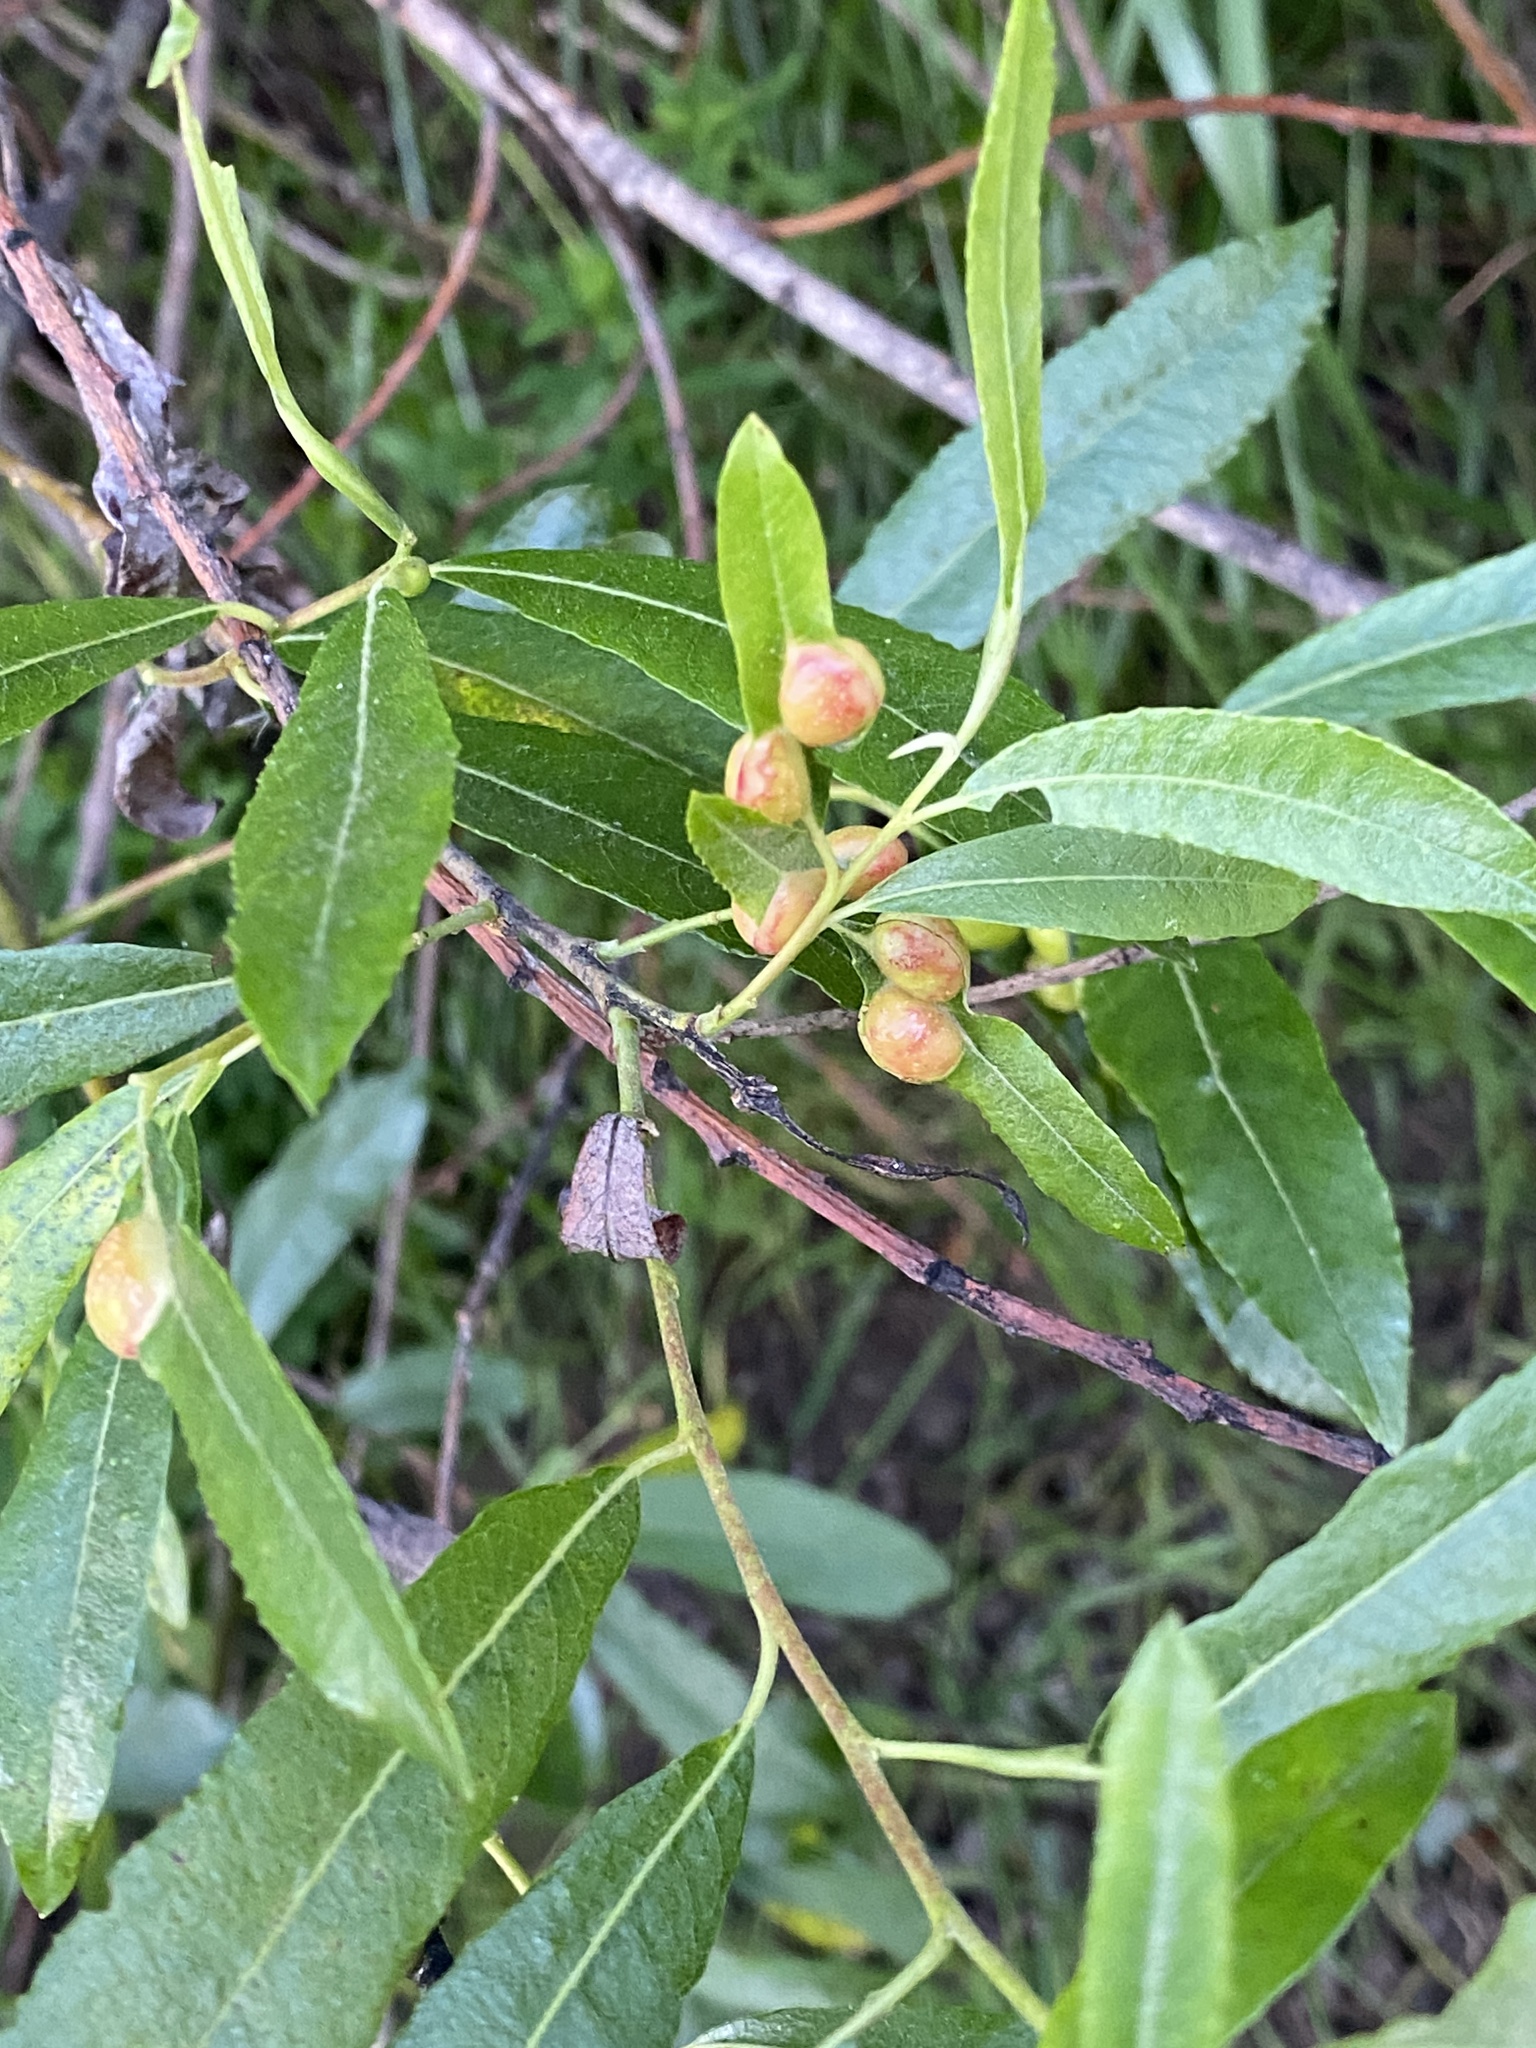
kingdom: Animalia
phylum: Arthropoda
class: Insecta
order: Hymenoptera
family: Tenthredinidae
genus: Euura
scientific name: Euura
